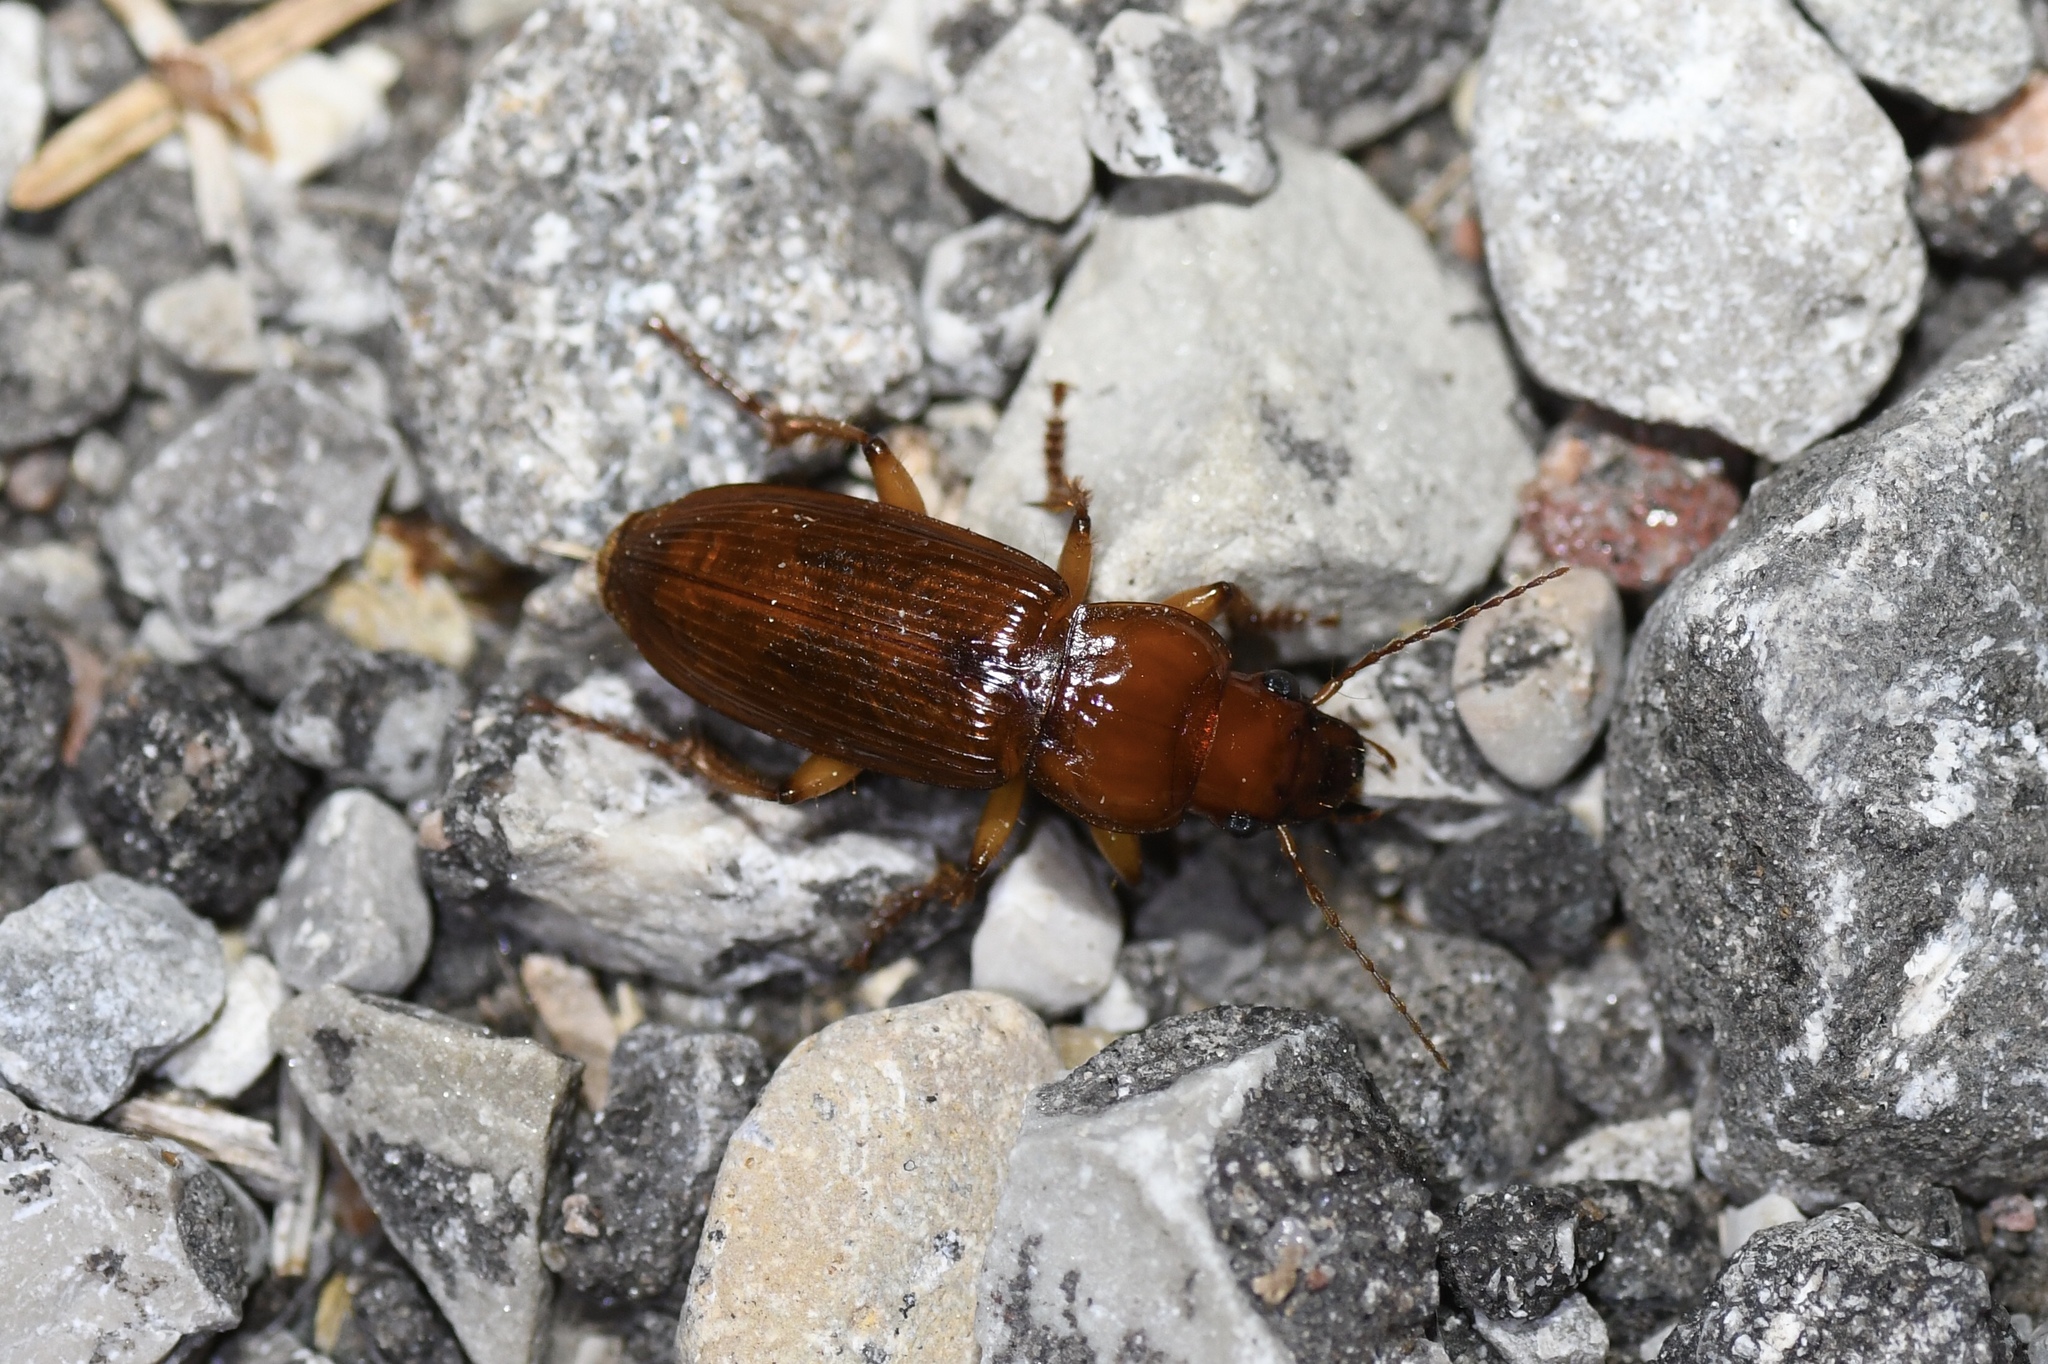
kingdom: Animalia
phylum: Arthropoda
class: Insecta
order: Coleoptera
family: Carabidae
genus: Harpalus
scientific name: Harpalus erraticus
